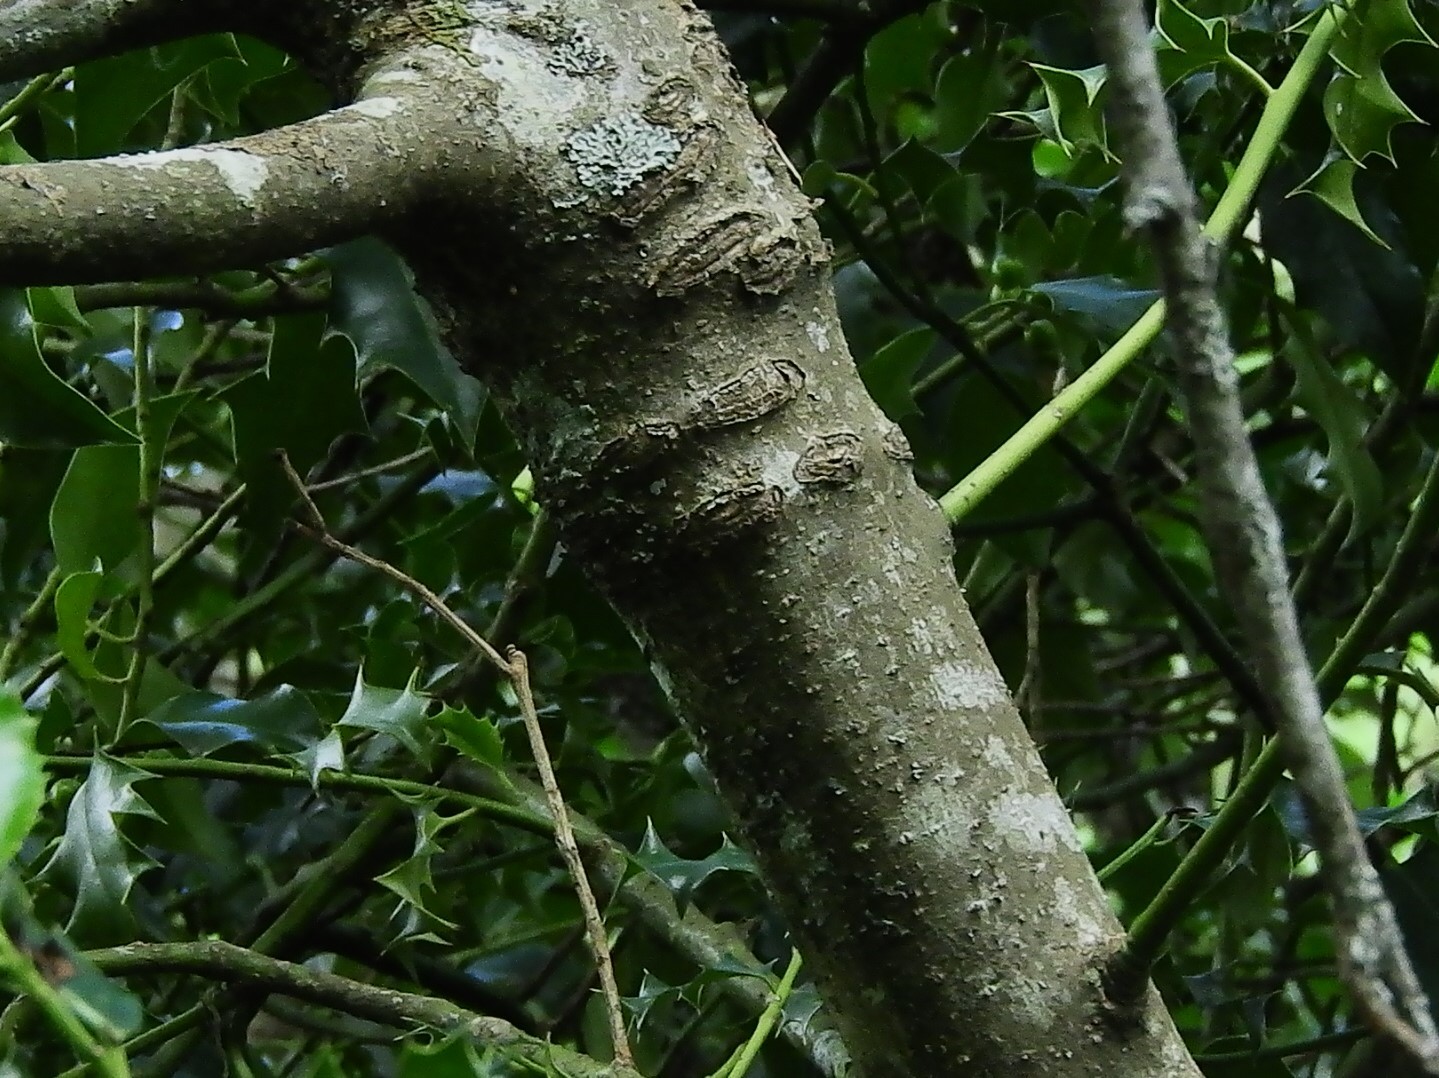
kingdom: Plantae
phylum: Tracheophyta
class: Magnoliopsida
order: Aquifoliales
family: Aquifoliaceae
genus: Ilex
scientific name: Ilex aquifolium
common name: English holly
